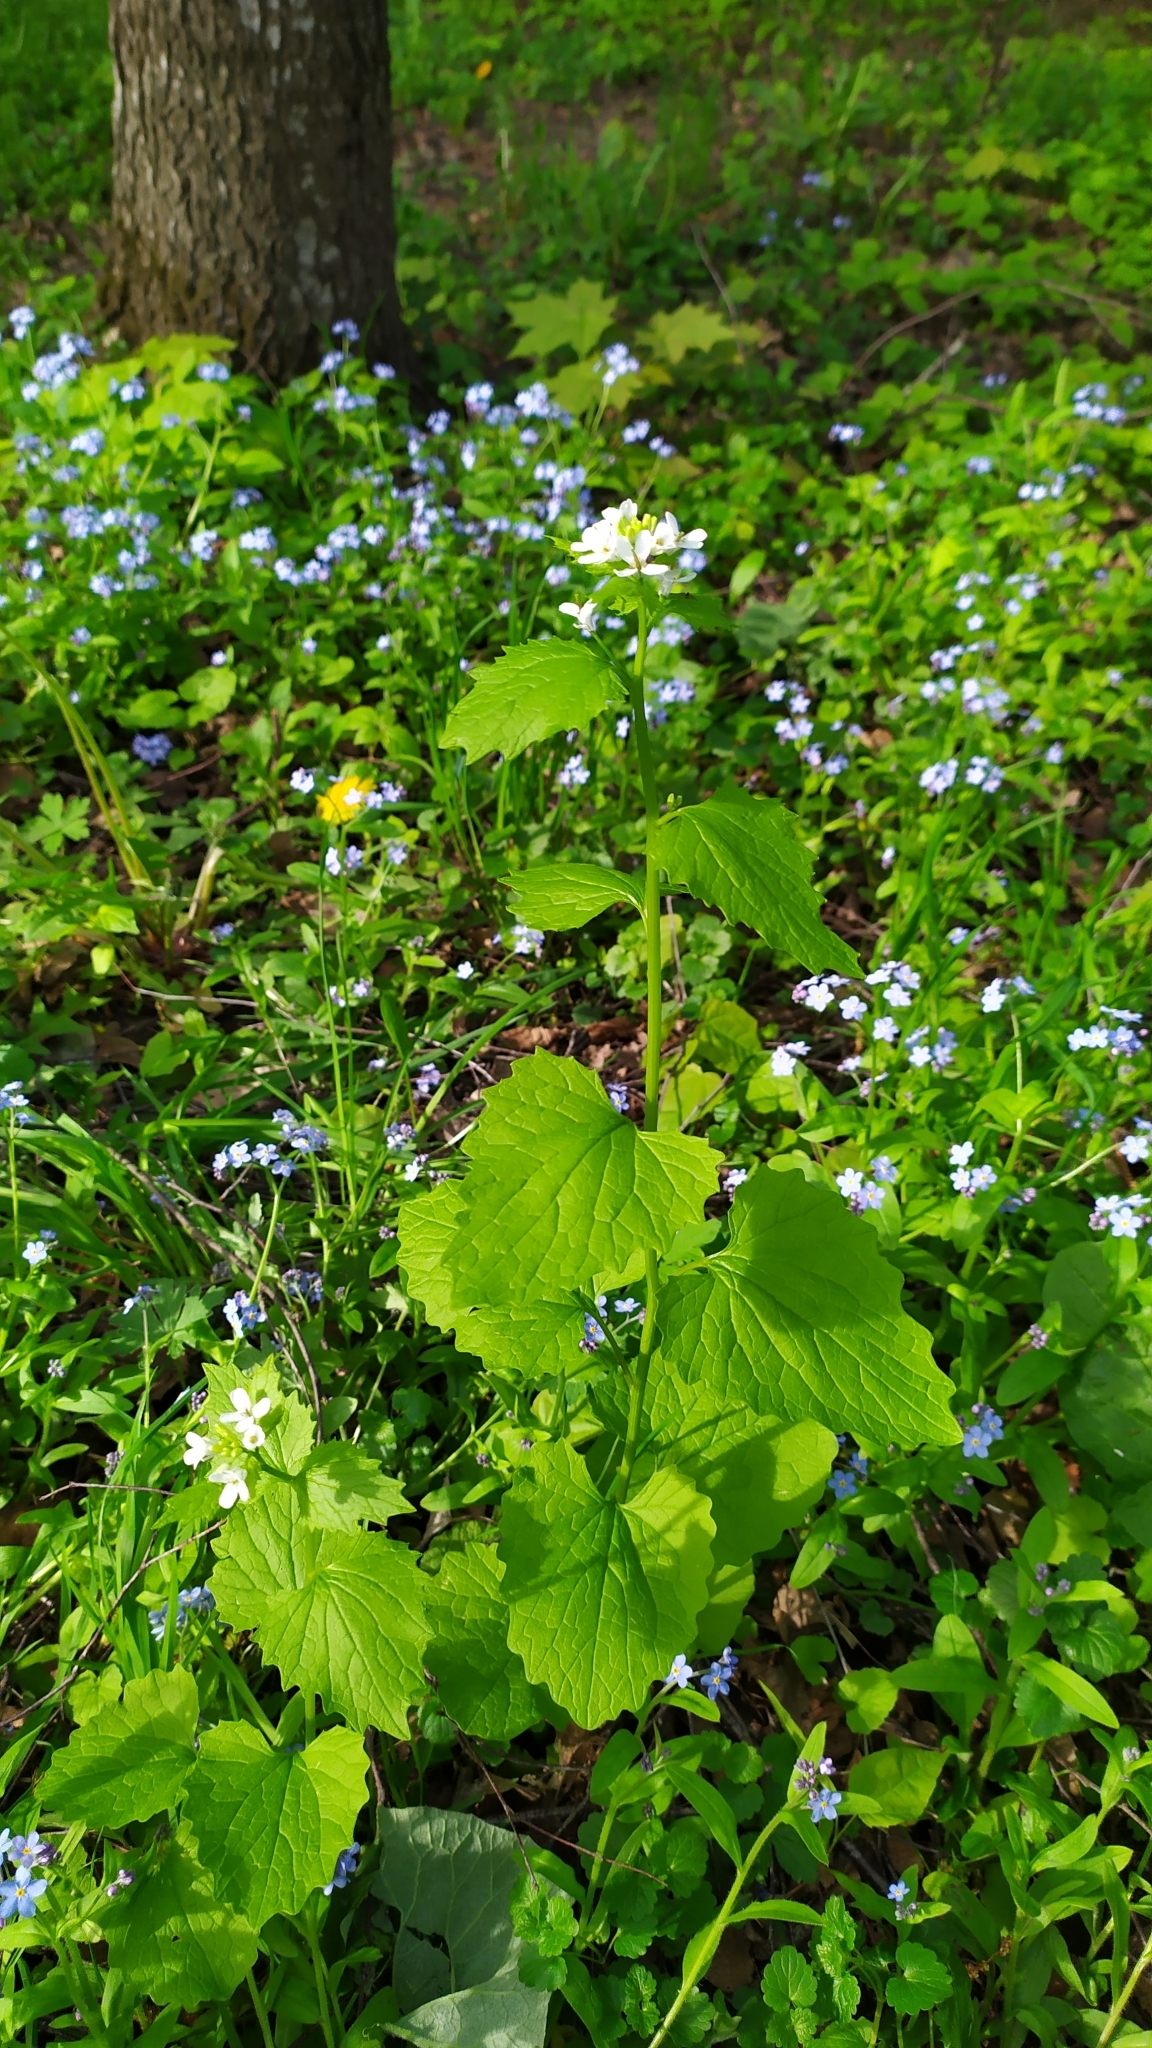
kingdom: Plantae
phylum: Tracheophyta
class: Magnoliopsida
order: Brassicales
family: Brassicaceae
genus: Alliaria
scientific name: Alliaria petiolata
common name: Garlic mustard
